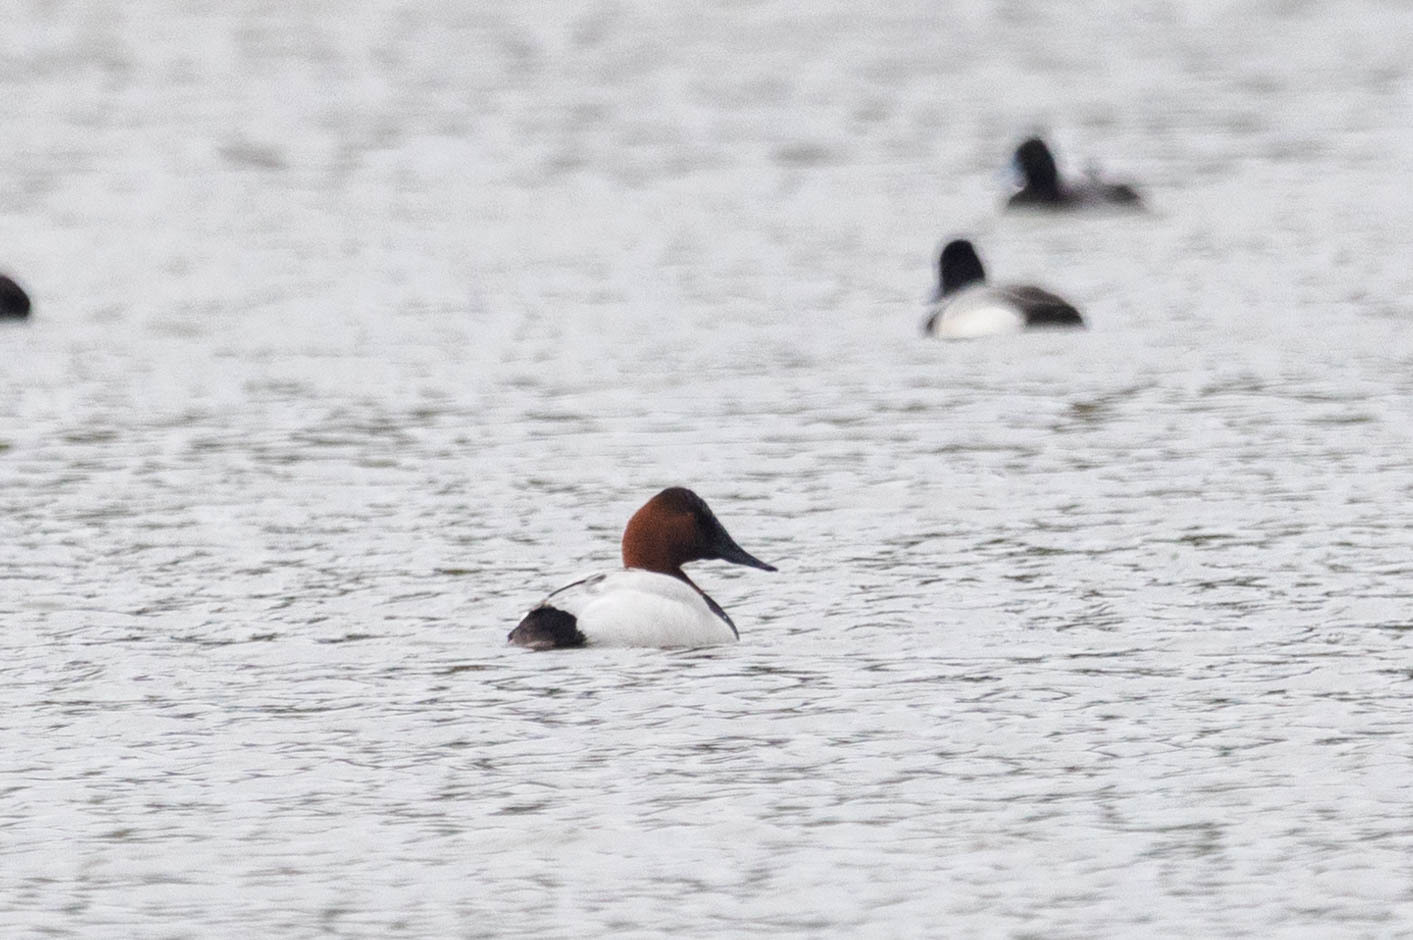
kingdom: Animalia
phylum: Chordata
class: Aves
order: Anseriformes
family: Anatidae
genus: Aythya
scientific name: Aythya valisineria
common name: Canvasback
